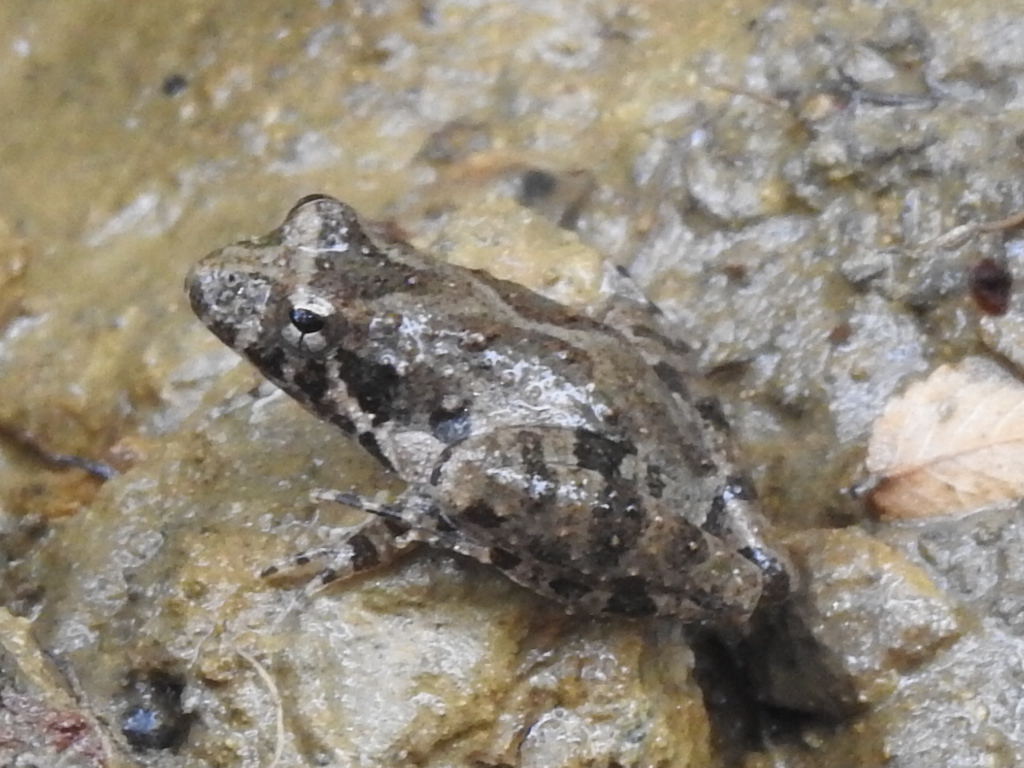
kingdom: Animalia
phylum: Chordata
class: Amphibia
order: Anura
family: Hylidae
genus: Acris
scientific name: Acris blanchardi
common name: Blanchard's cricket frog
